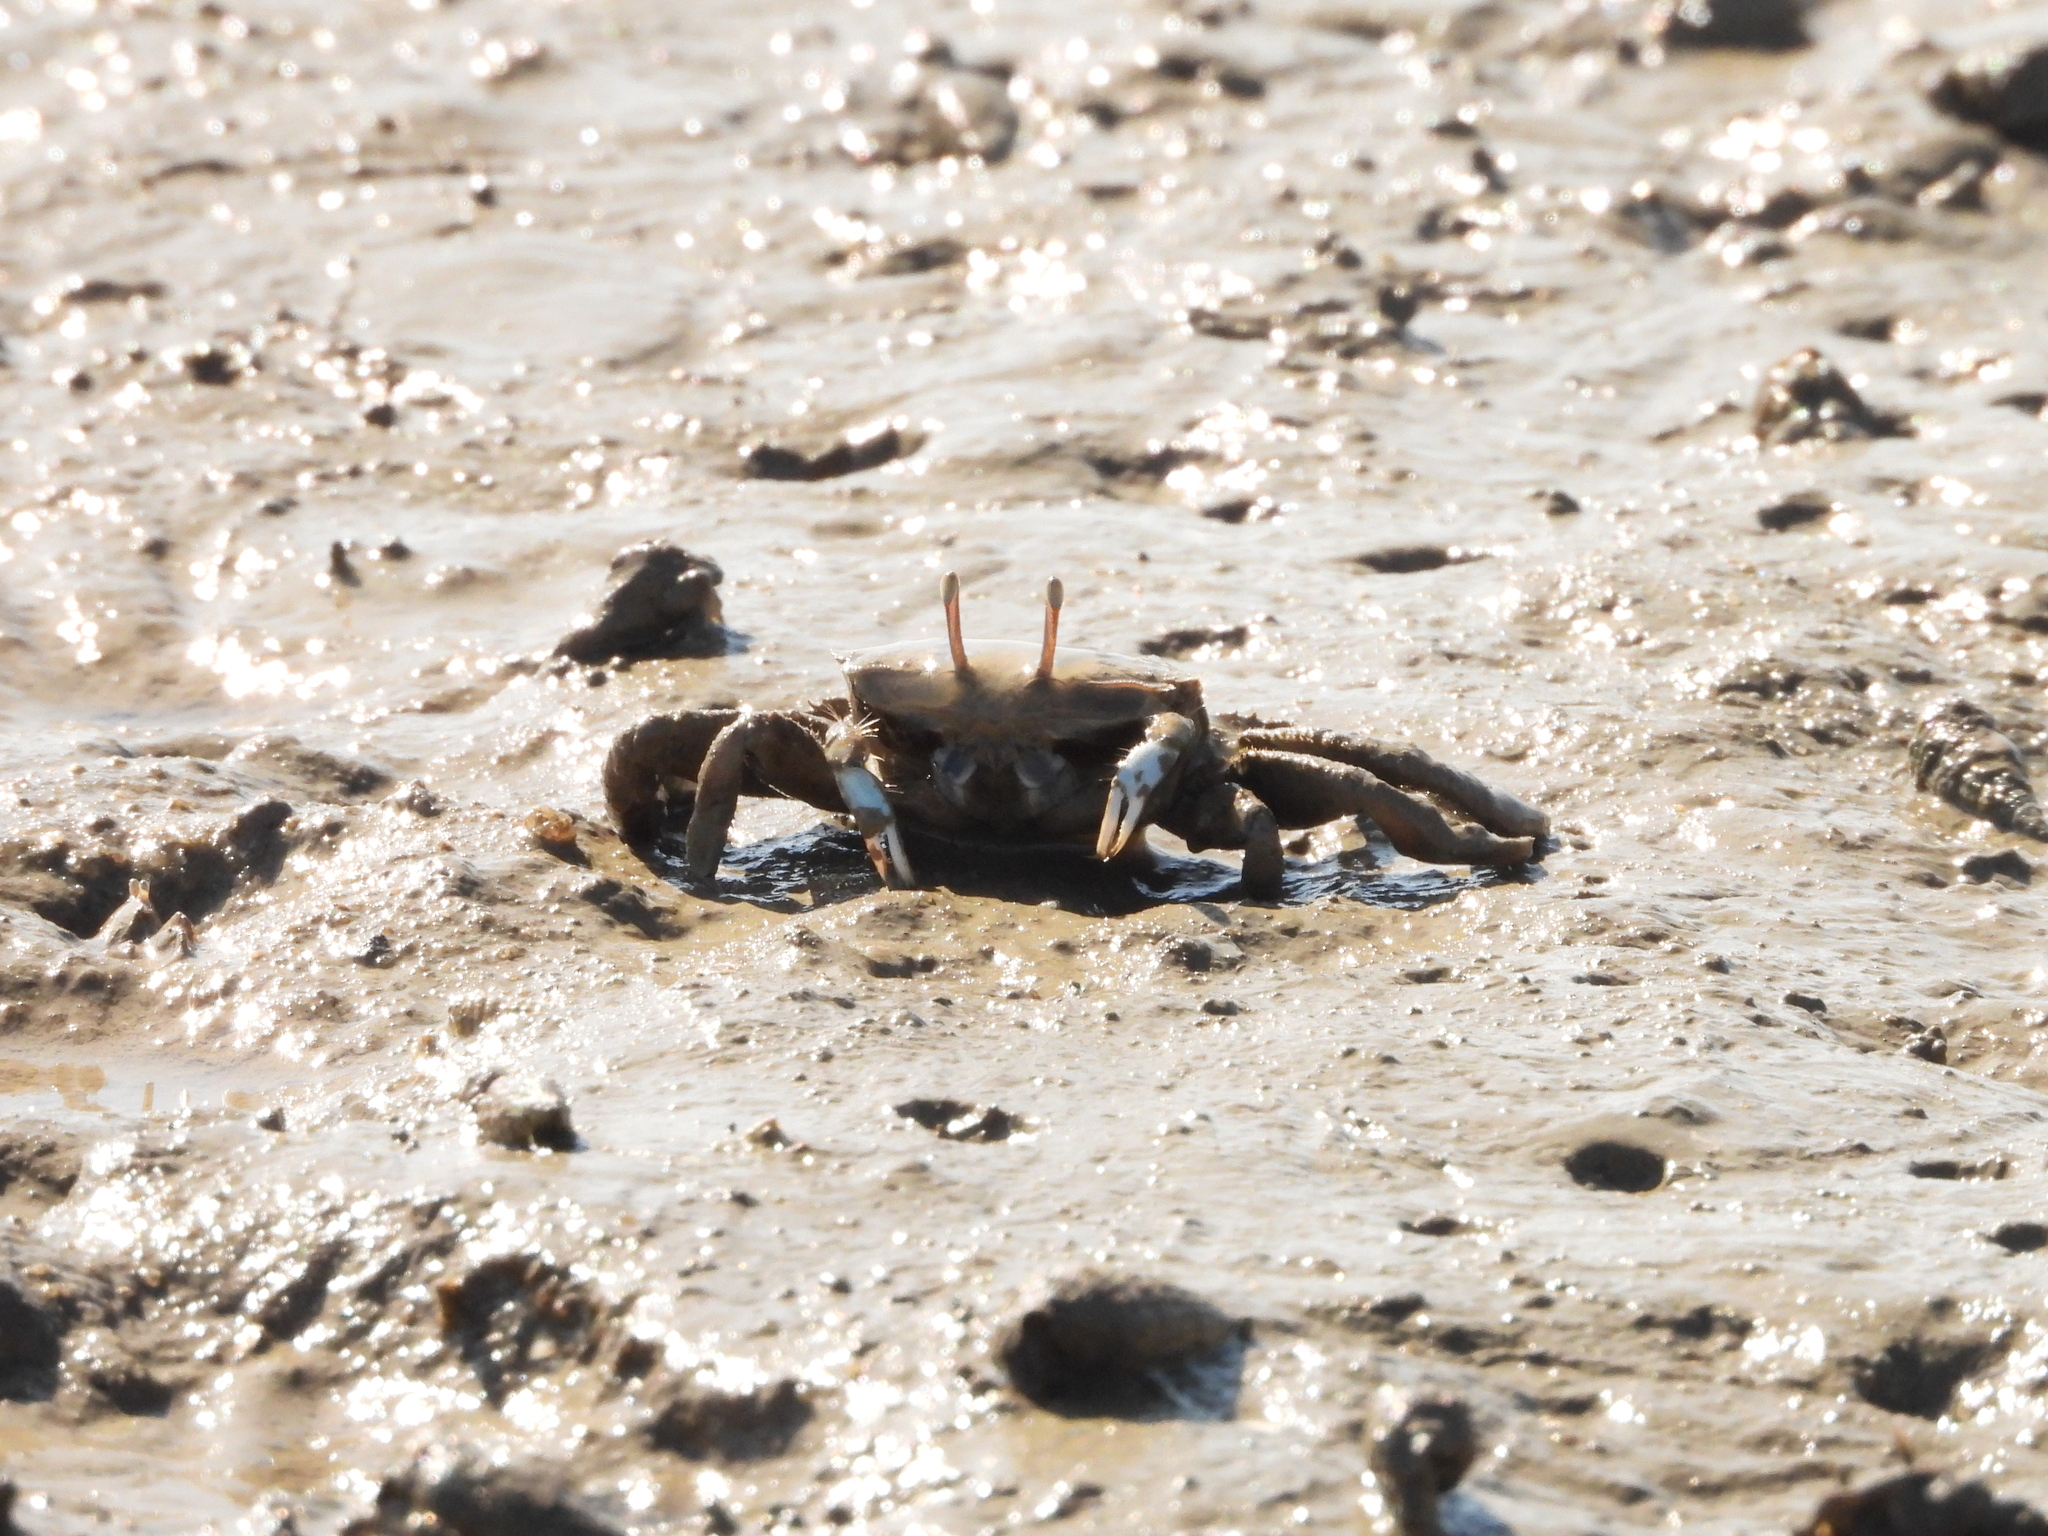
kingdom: Animalia
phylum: Arthropoda
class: Malacostraca
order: Decapoda
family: Macrophthalmidae
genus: Macrophthalmus
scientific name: Macrophthalmus tomentosus
